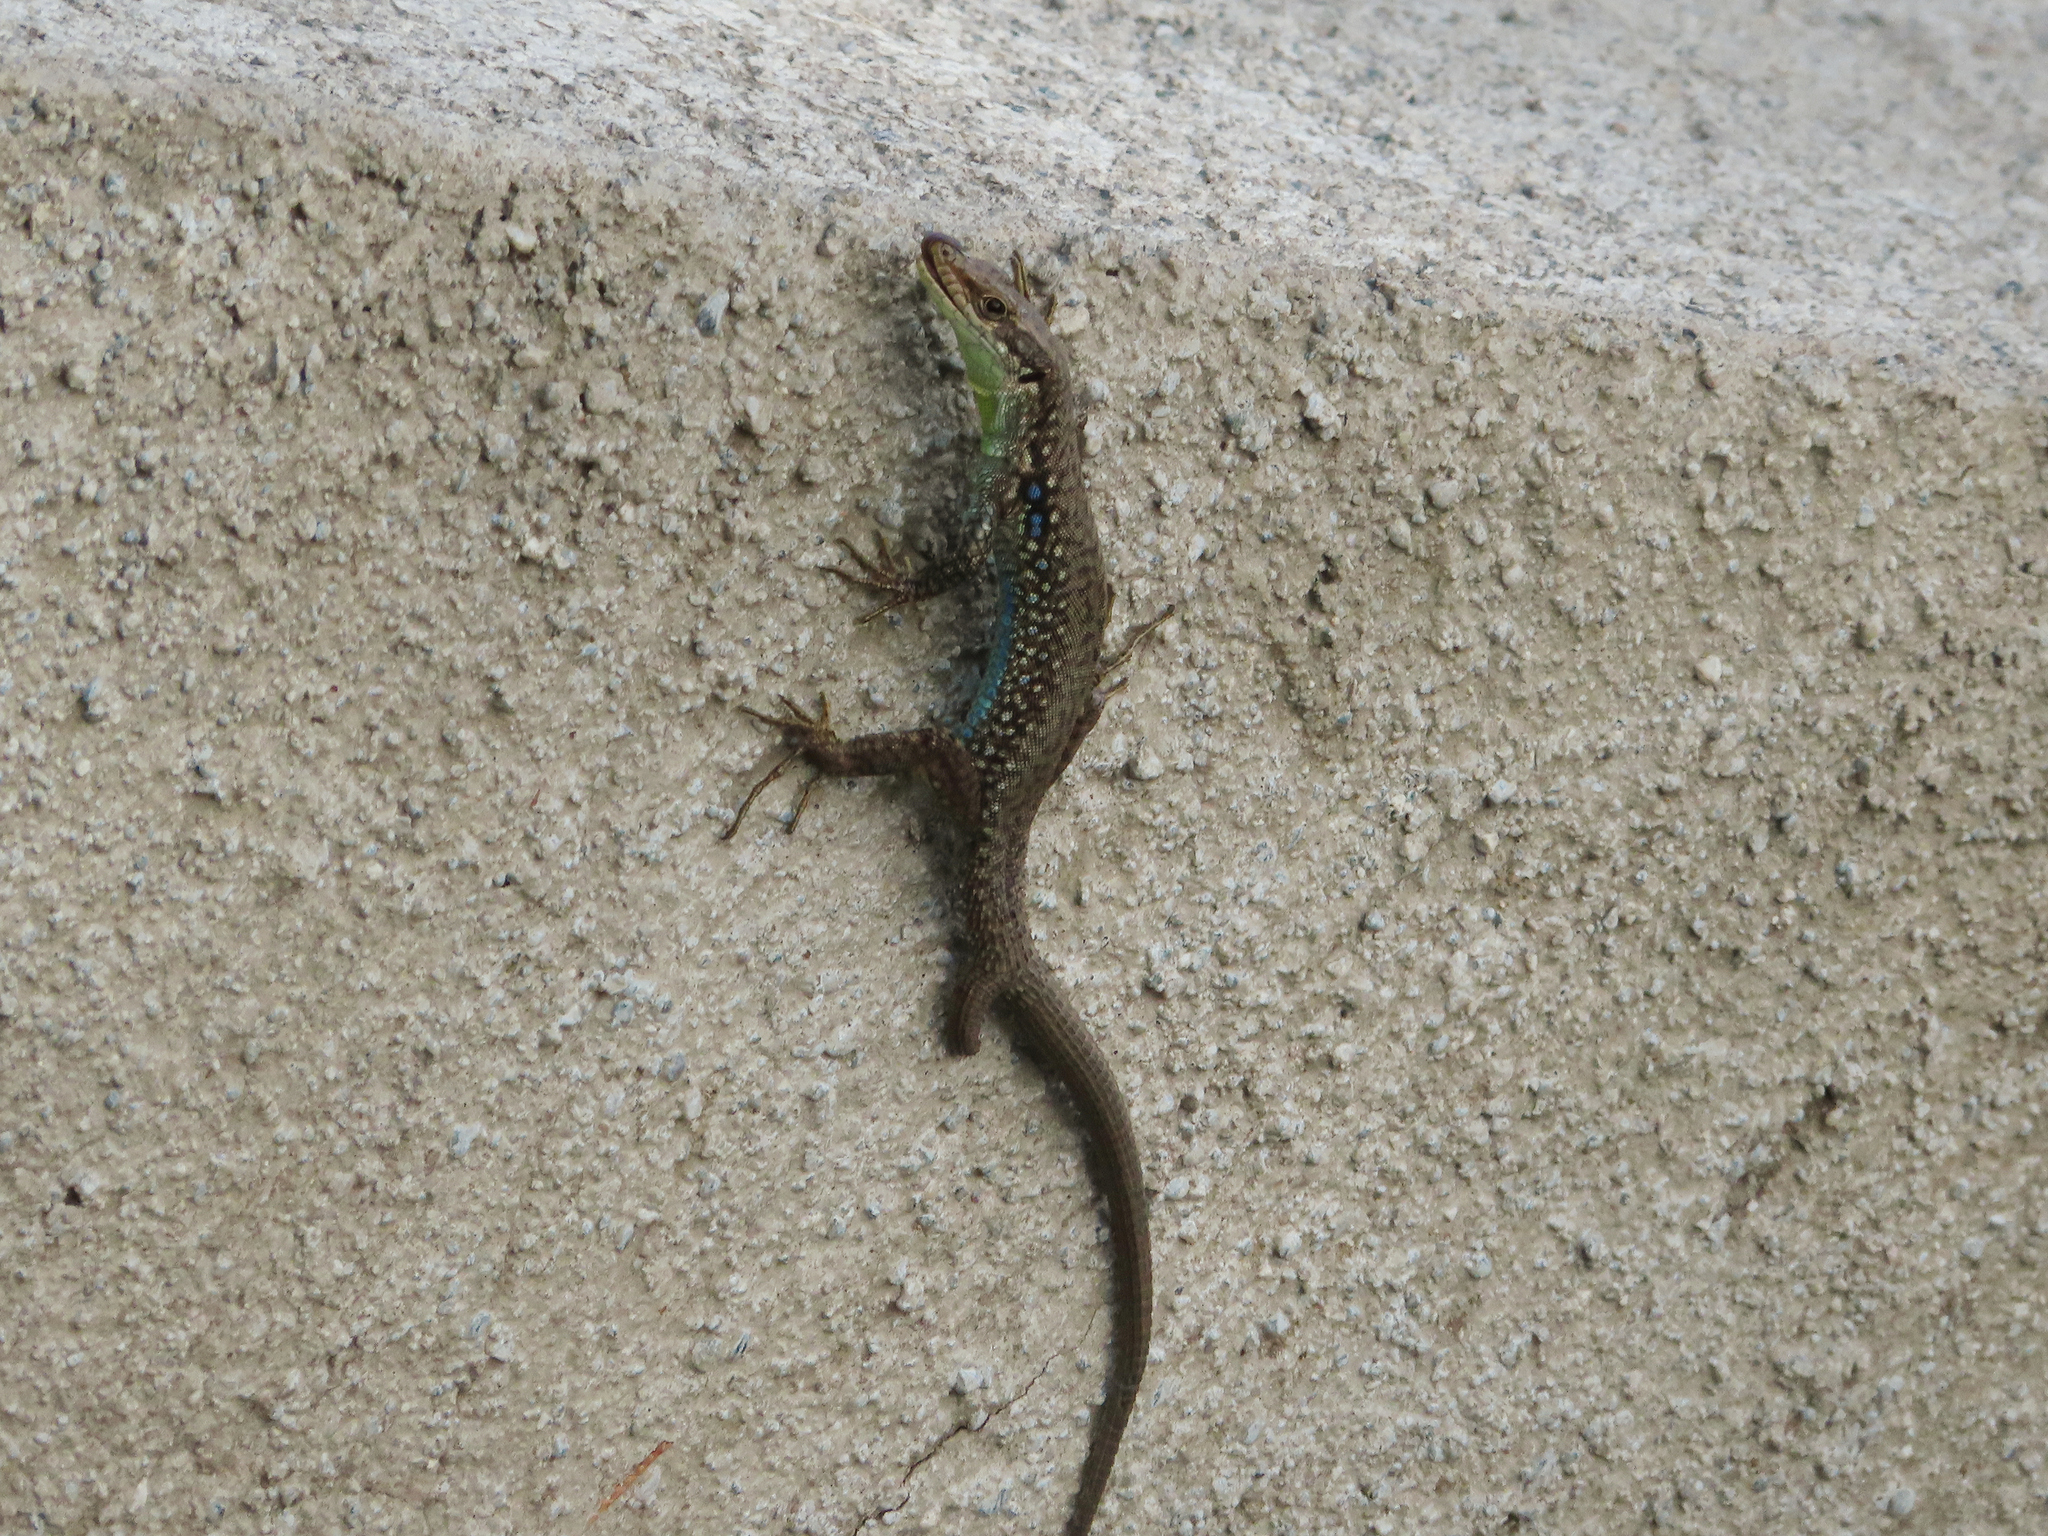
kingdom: Animalia
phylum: Chordata
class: Squamata
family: Lacertidae
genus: Darevskia
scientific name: Darevskia
